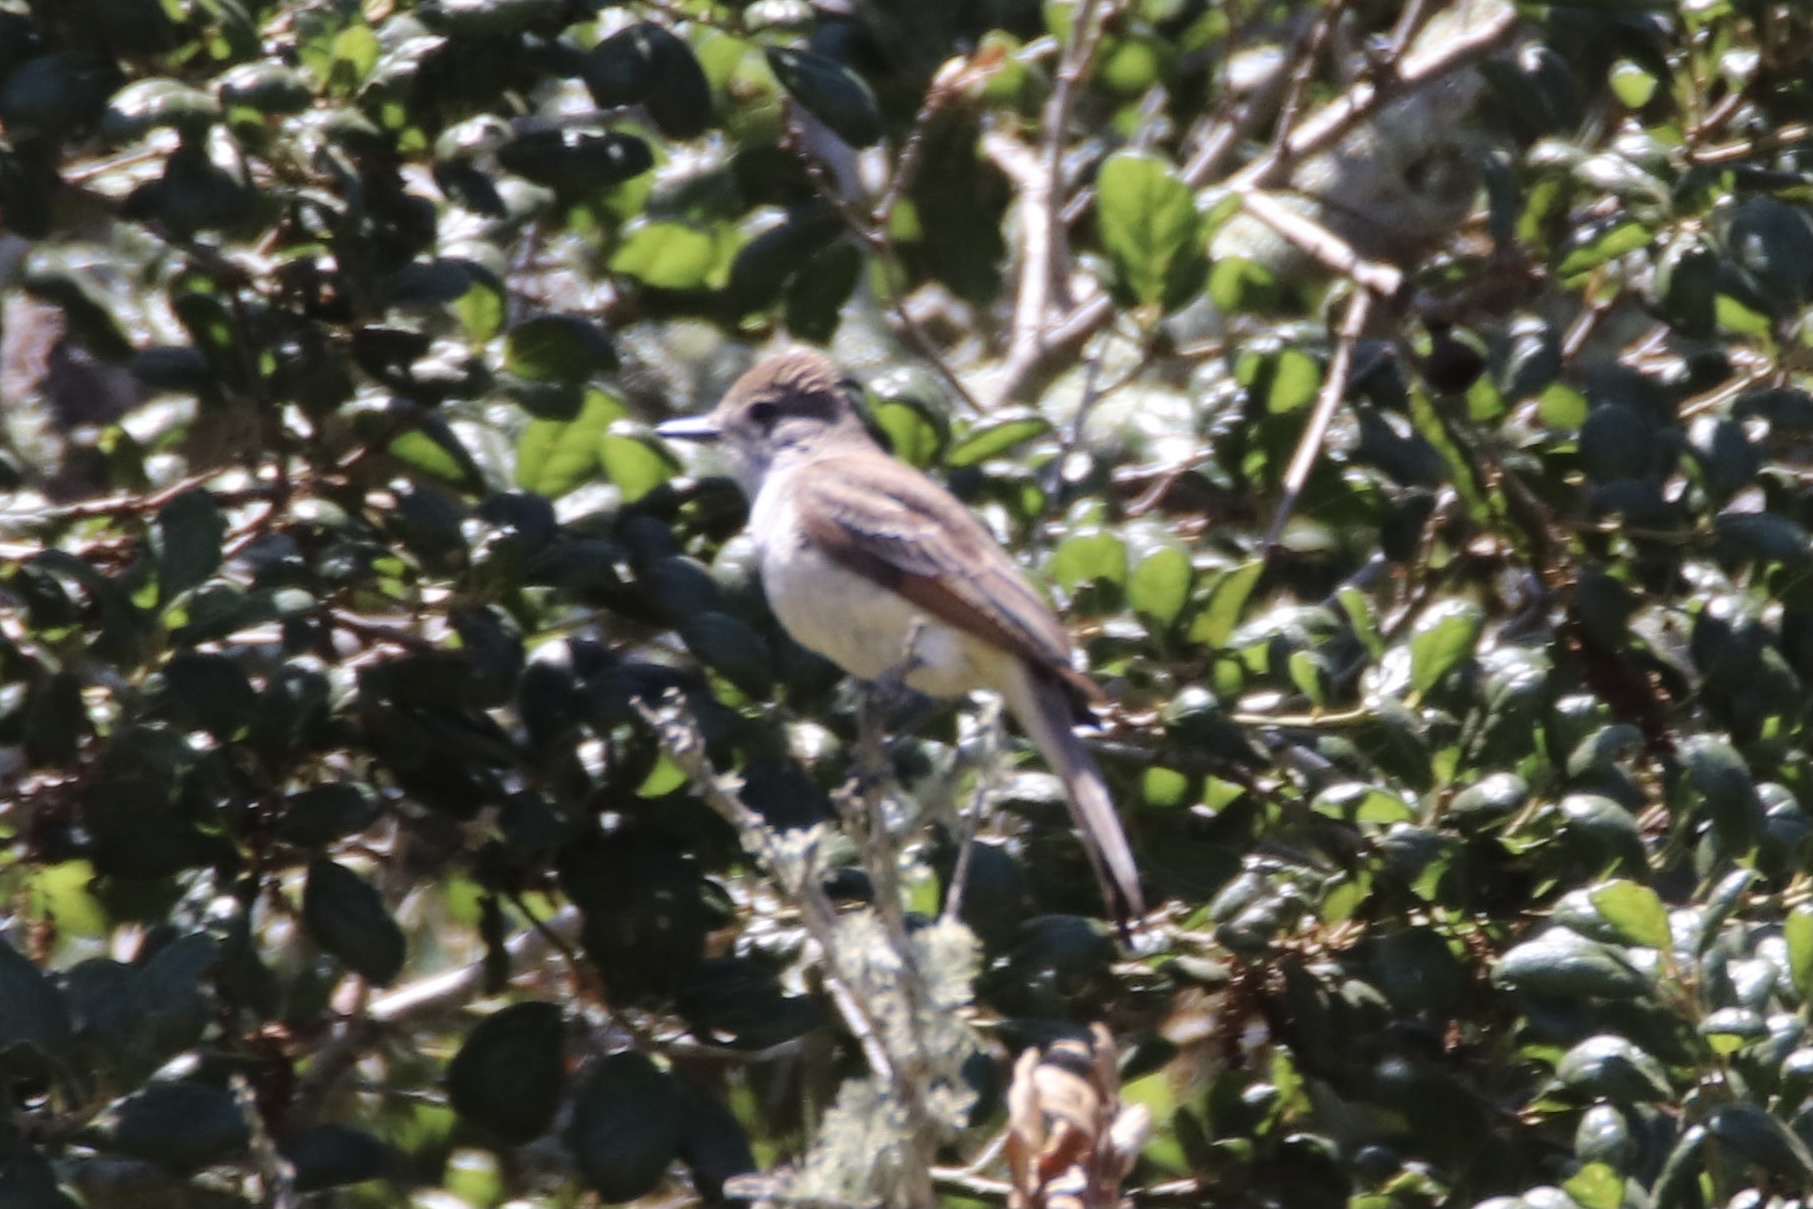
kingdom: Animalia
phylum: Chordata
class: Aves
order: Passeriformes
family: Tyrannidae
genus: Myiarchus
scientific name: Myiarchus cinerascens
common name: Ash-throated flycatcher
